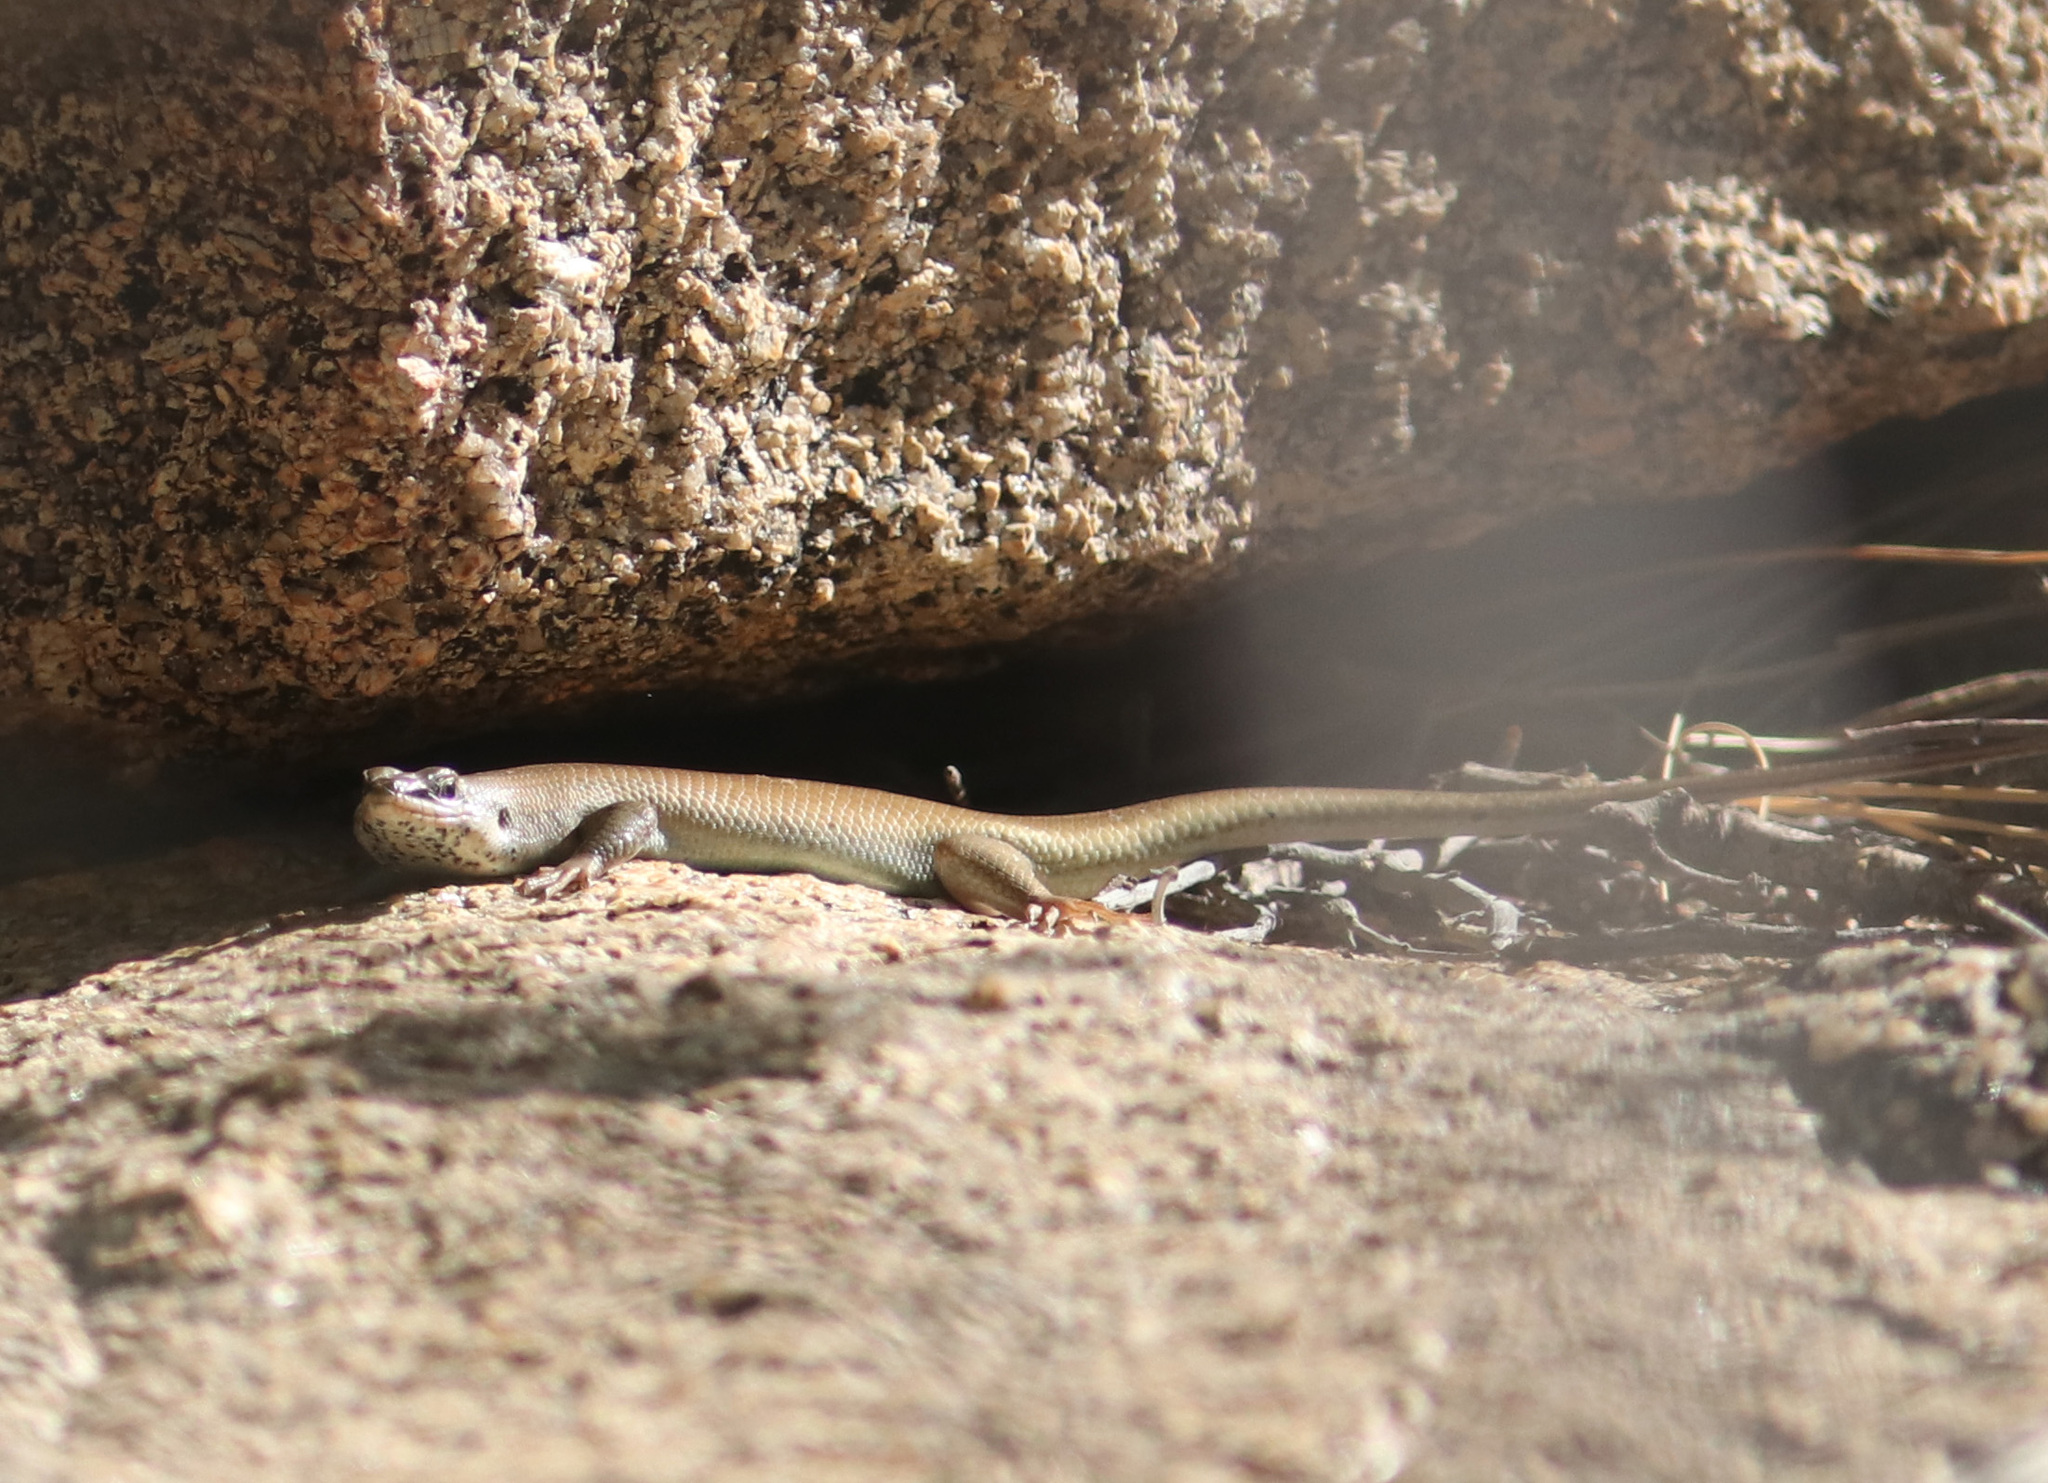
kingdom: Animalia
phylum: Chordata
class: Squamata
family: Scincidae
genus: Trachylepis
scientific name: Trachylepis sulcata
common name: Western rock skink
